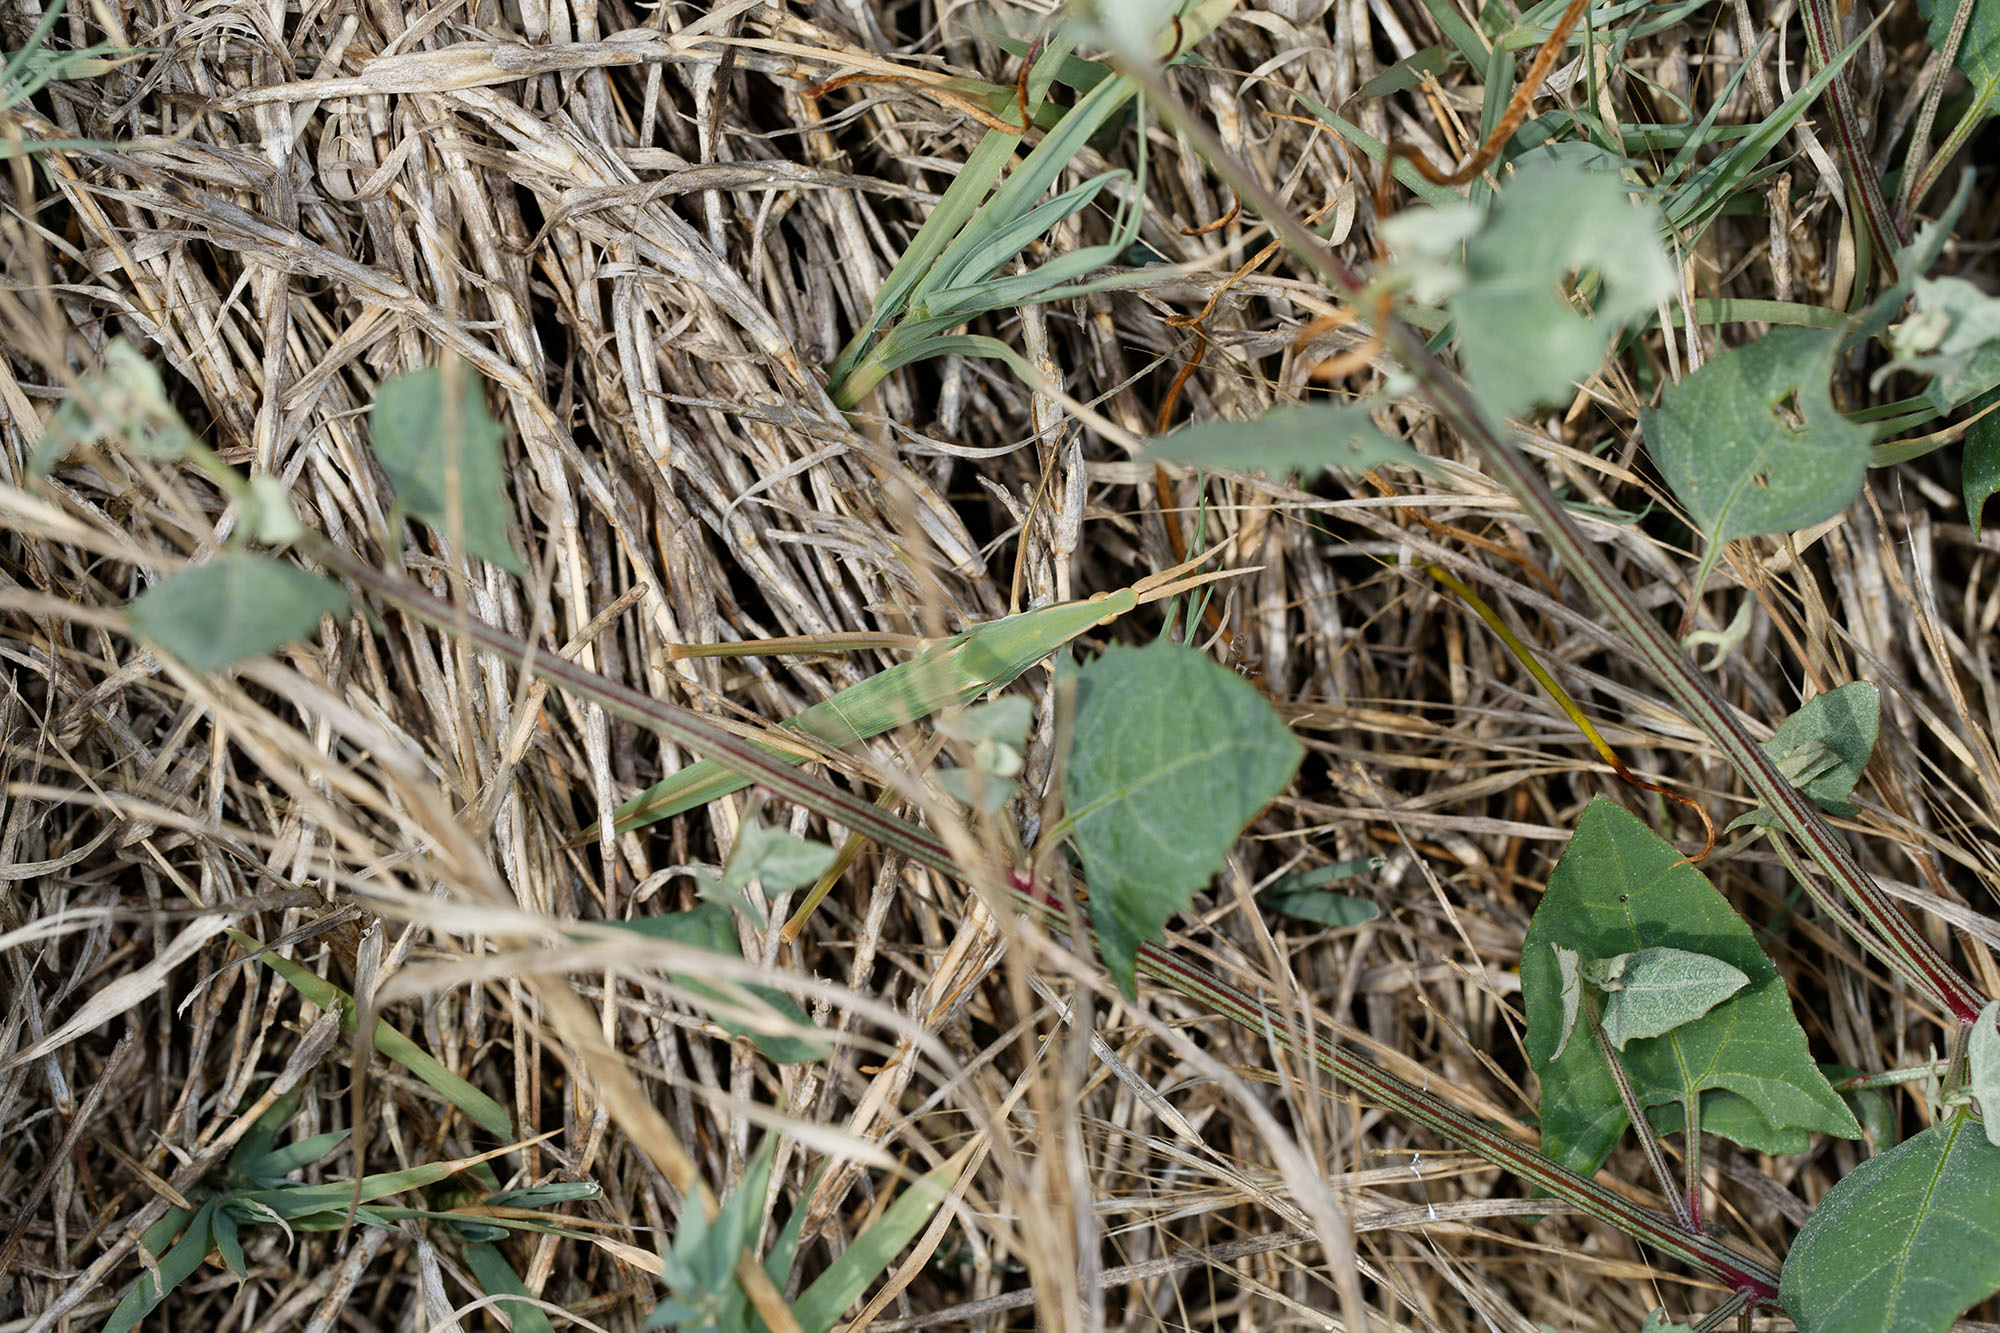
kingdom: Animalia
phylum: Arthropoda
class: Insecta
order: Orthoptera
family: Acrididae
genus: Acrida
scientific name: Acrida conica
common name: Giant green slantface
